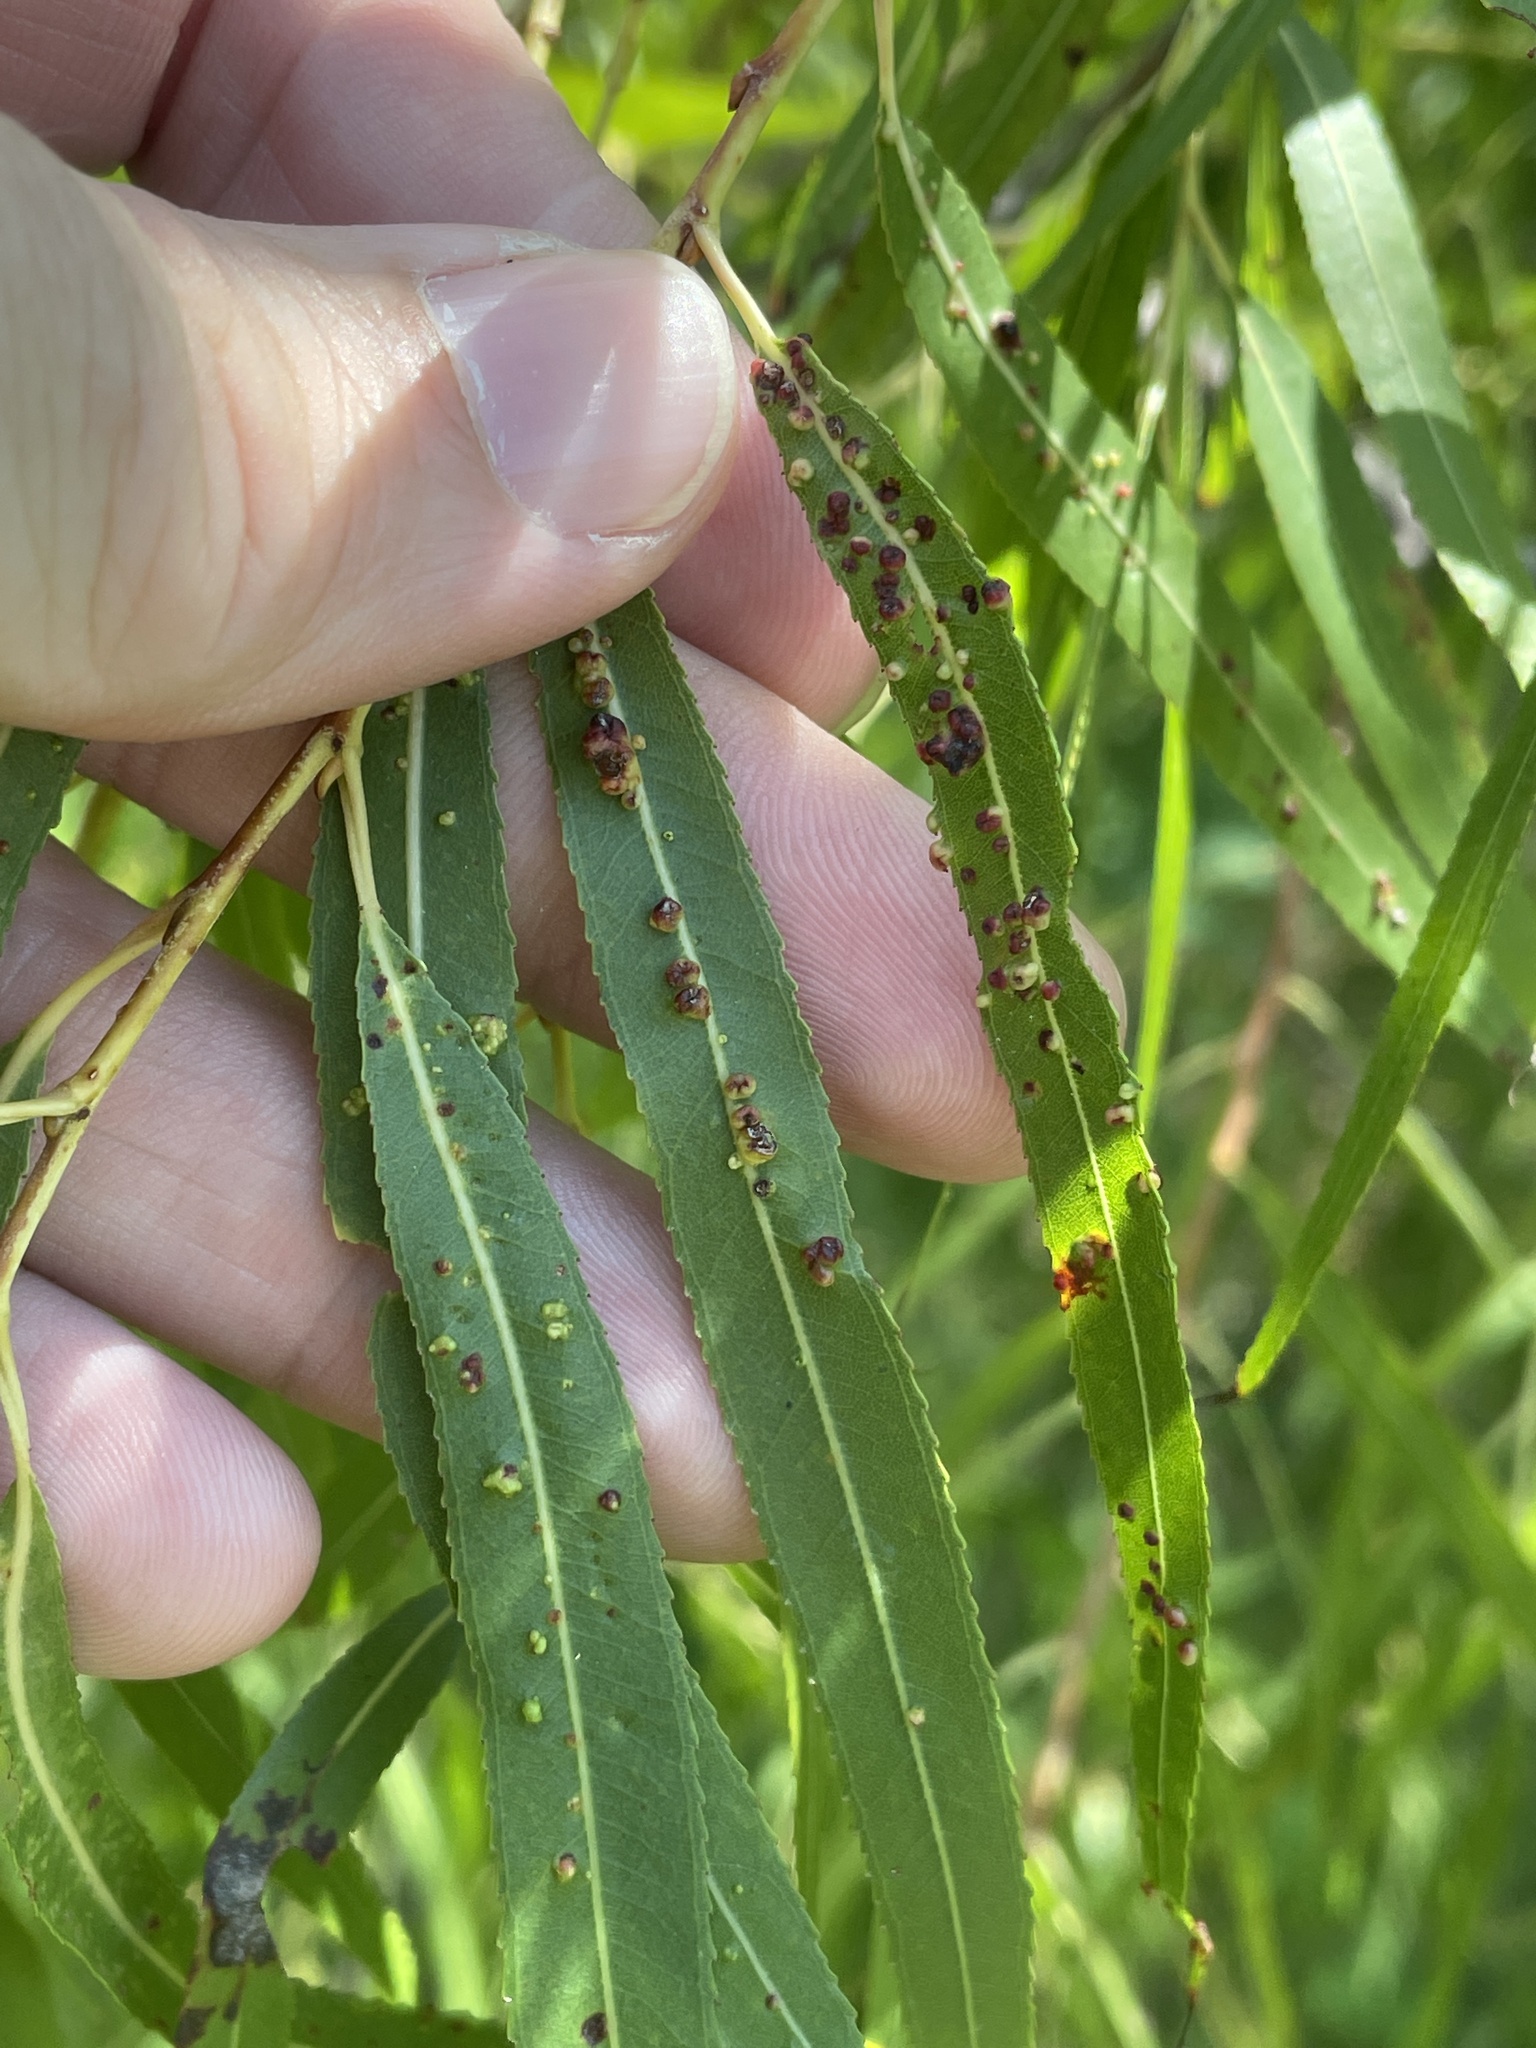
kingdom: Animalia
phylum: Arthropoda
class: Arachnida
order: Trombidiformes
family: Eriophyidae
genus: Aculus
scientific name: Aculus tetanothrix
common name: Willow bead gall mite
